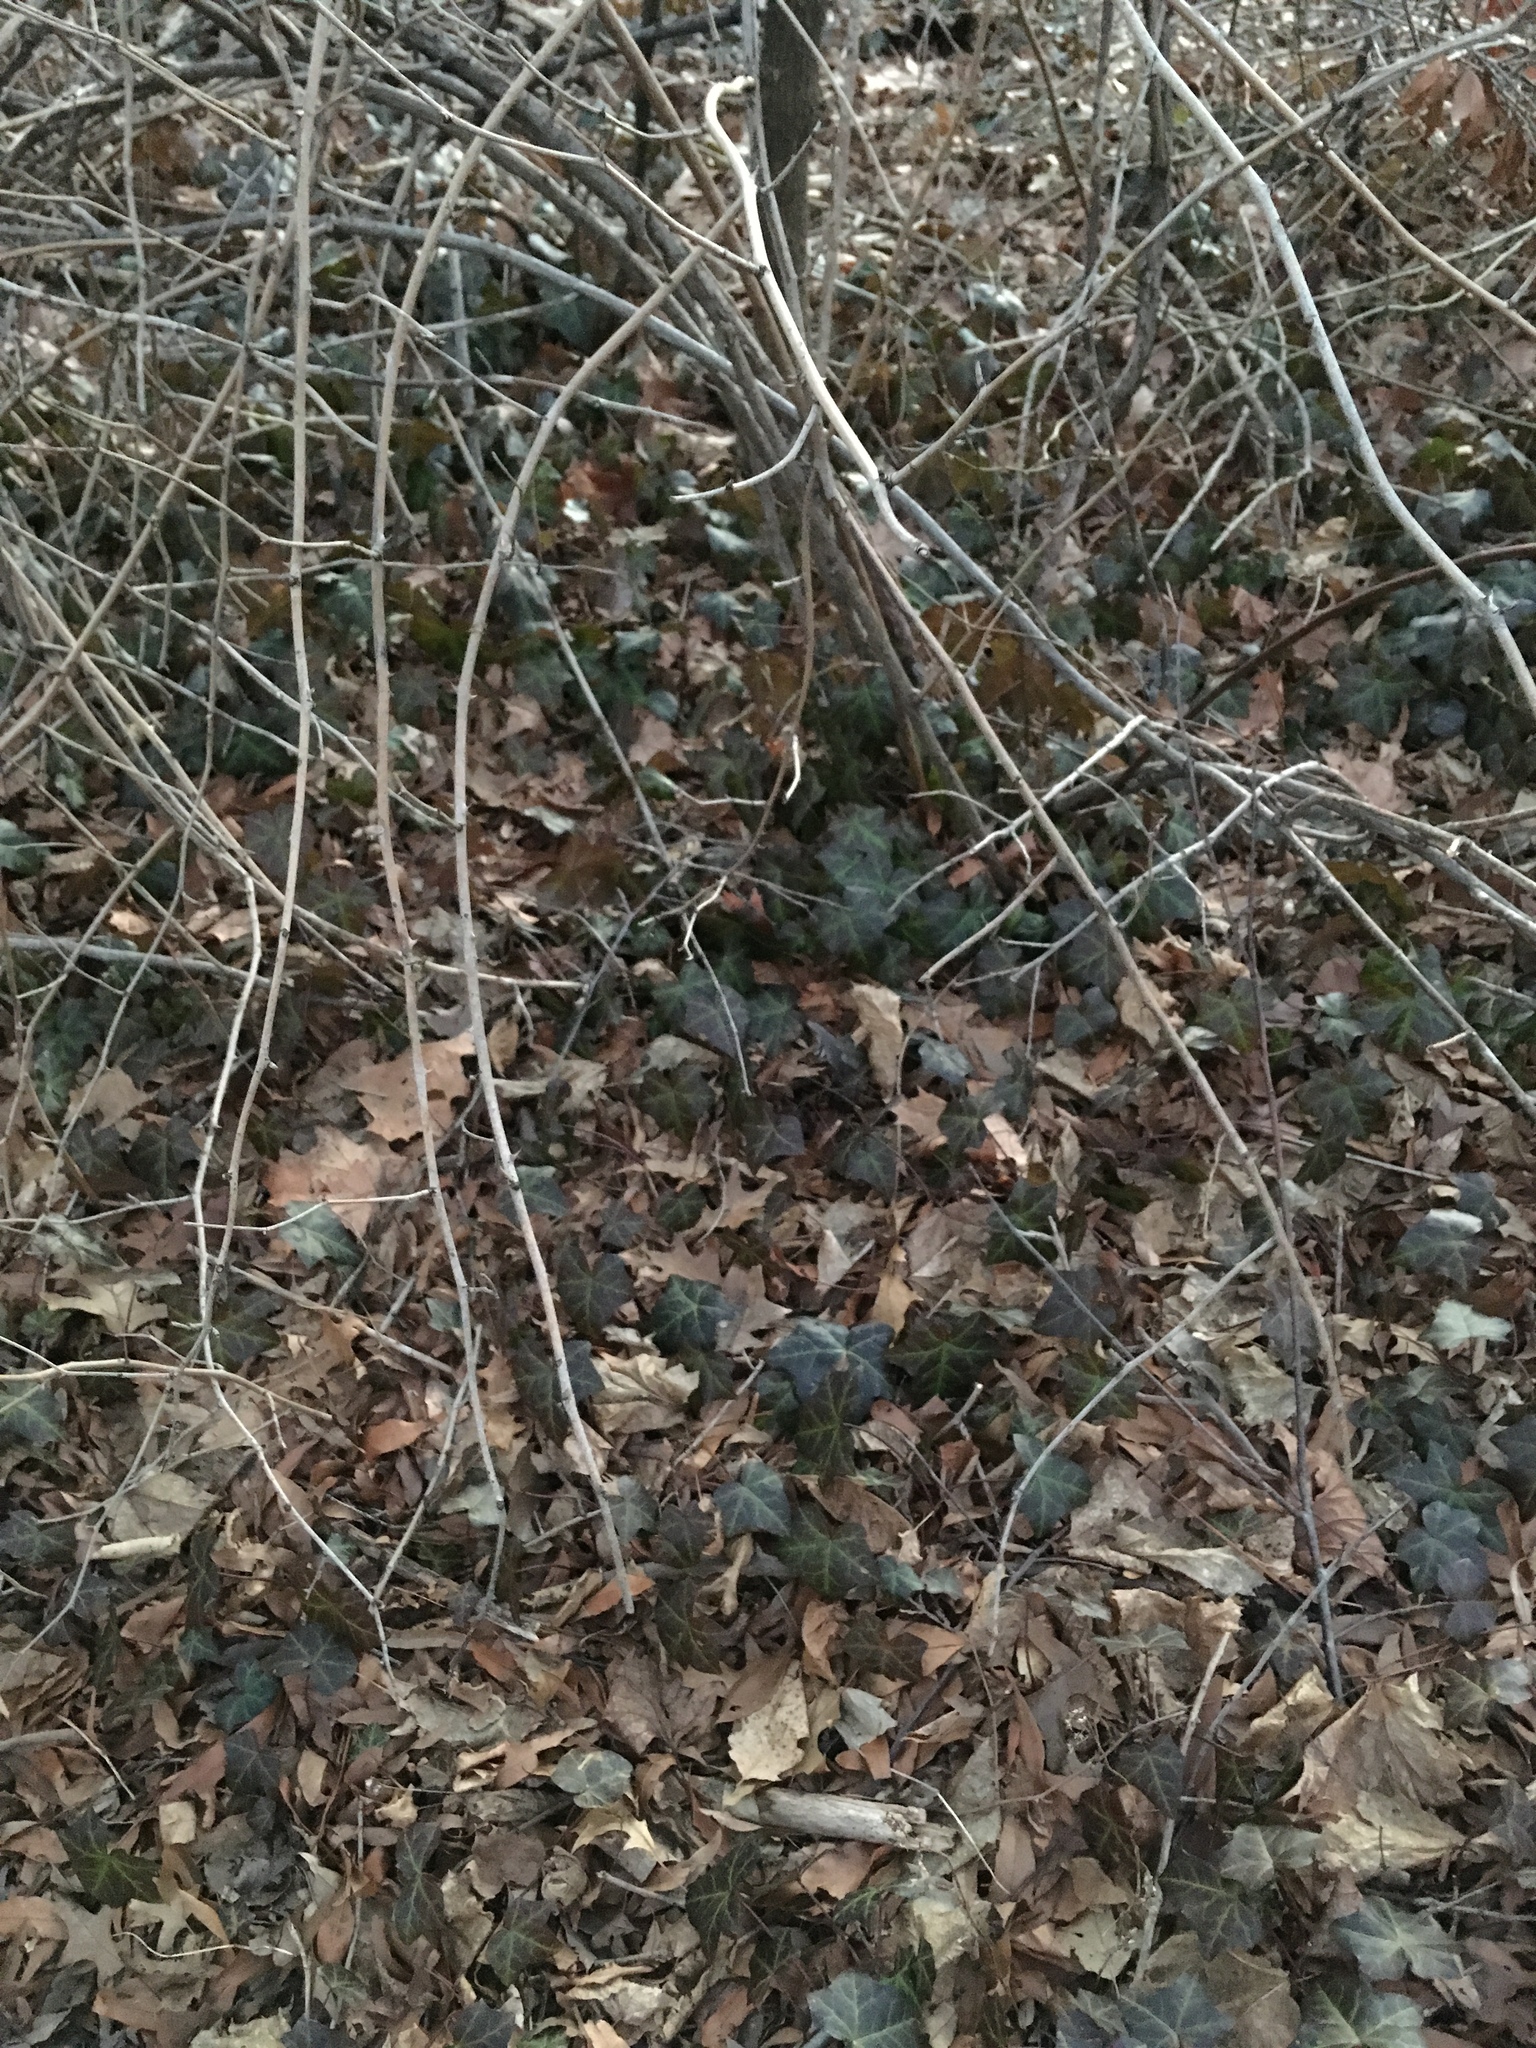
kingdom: Plantae
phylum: Tracheophyta
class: Magnoliopsida
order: Apiales
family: Araliaceae
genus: Hedera
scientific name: Hedera helix
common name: Ivy
